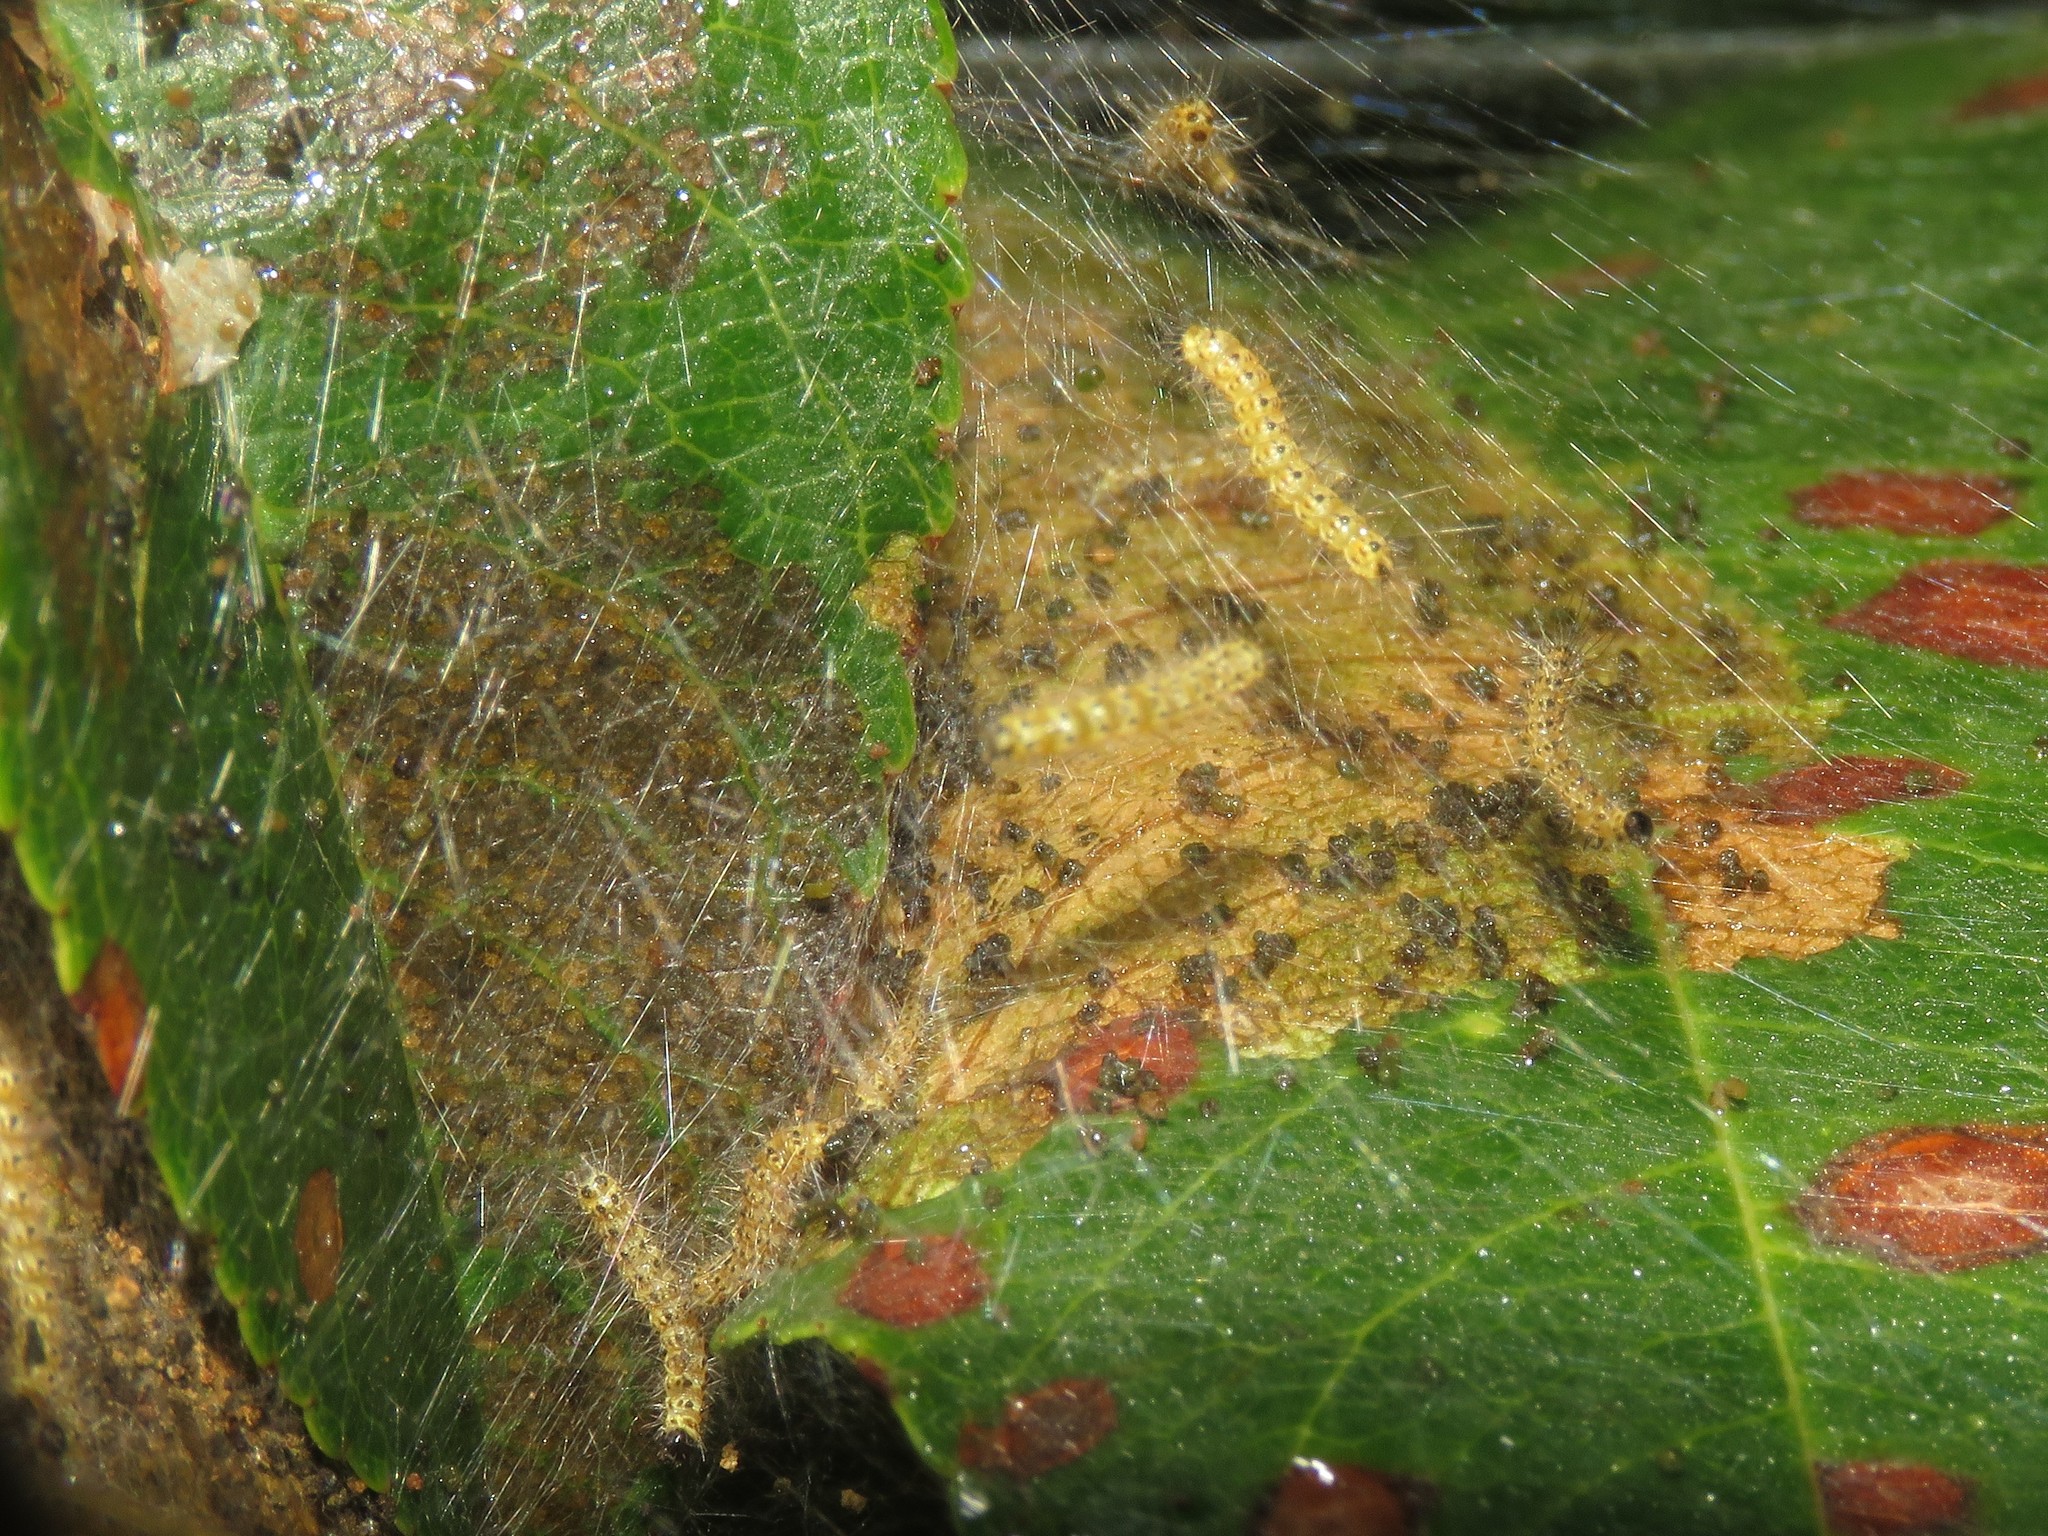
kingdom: Animalia
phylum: Arthropoda
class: Insecta
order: Lepidoptera
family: Erebidae
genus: Hyphantria
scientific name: Hyphantria cunea
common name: American white moth
